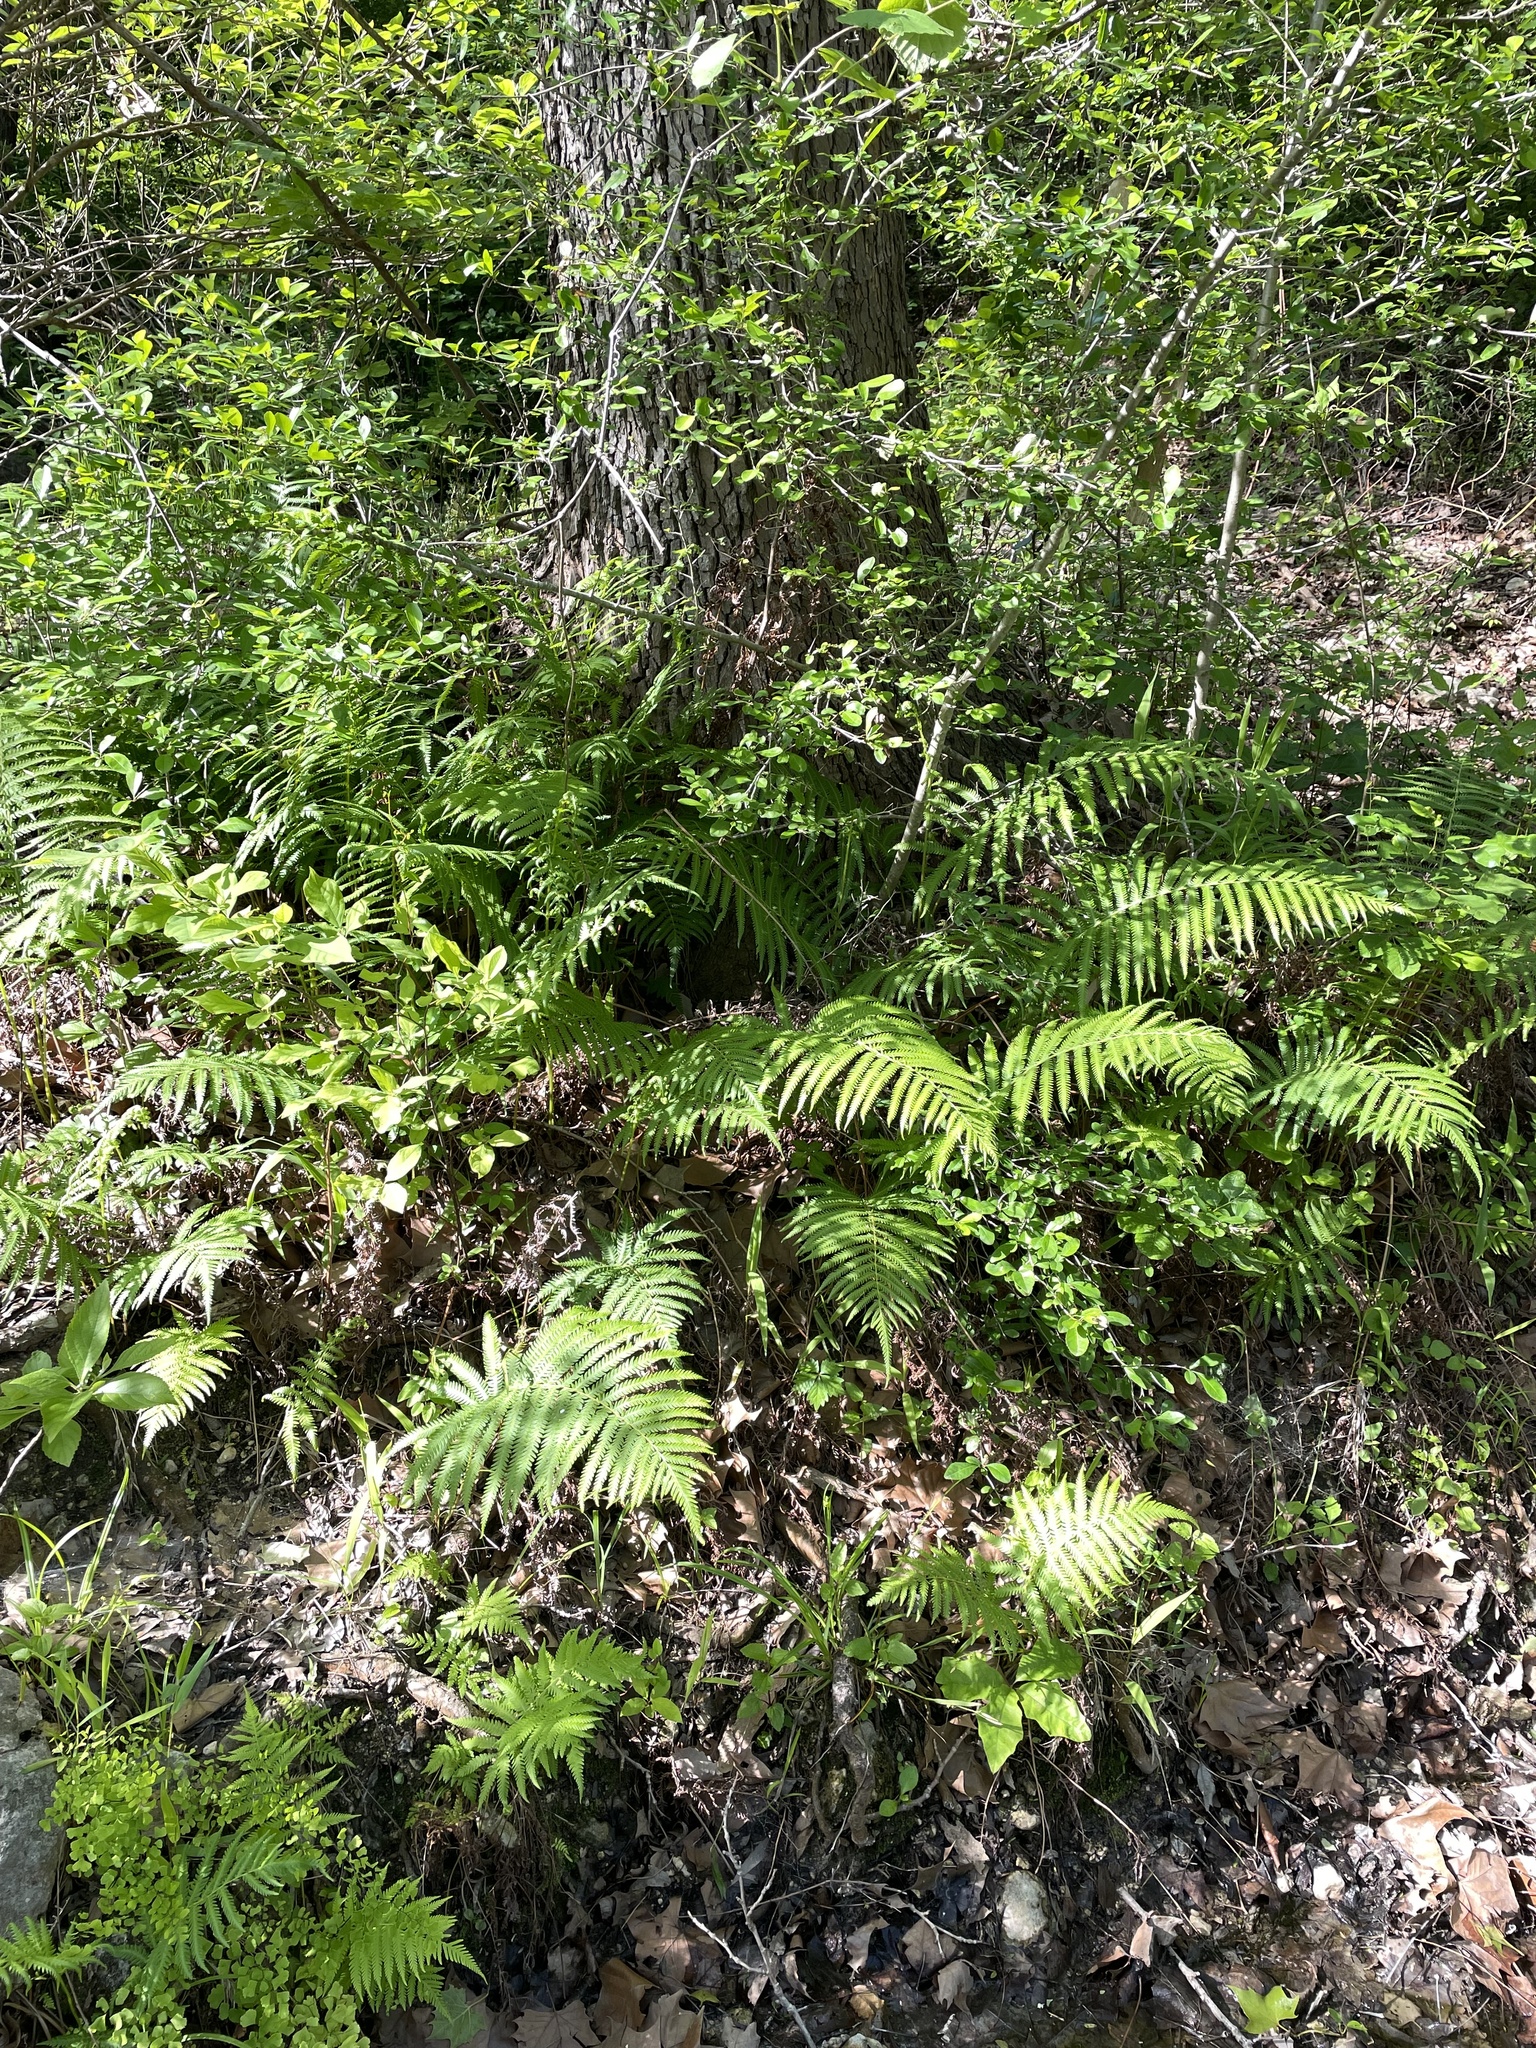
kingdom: Plantae
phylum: Tracheophyta
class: Polypodiopsida
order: Polypodiales
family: Thelypteridaceae
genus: Pelazoneuron
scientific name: Pelazoneuron ovatum
